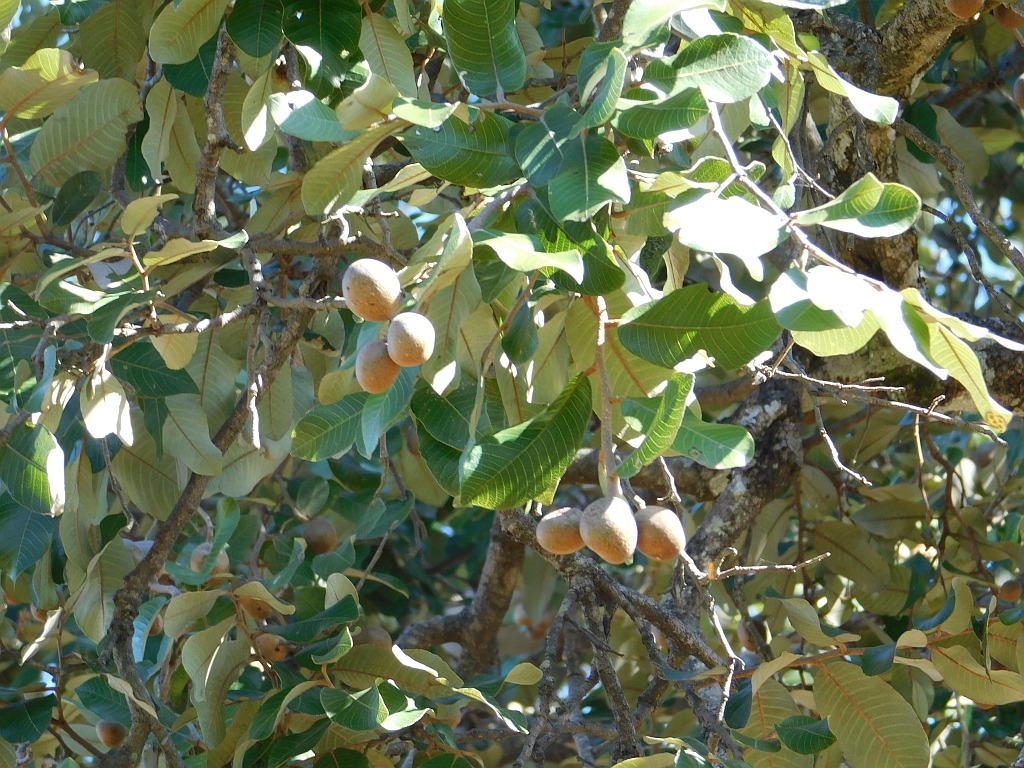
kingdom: Plantae
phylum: Tracheophyta
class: Magnoliopsida
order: Malpighiales
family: Chrysobalanaceae
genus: Parinari
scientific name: Parinari curatellifolia
